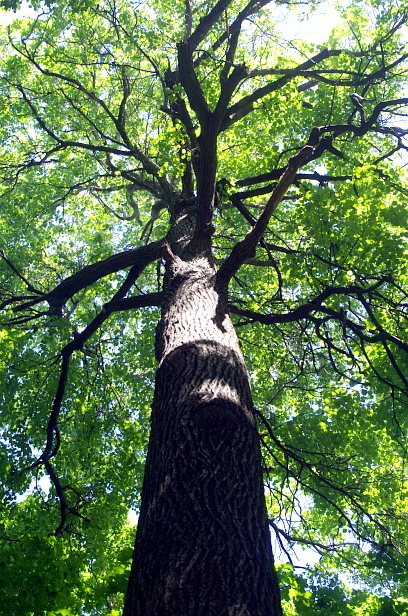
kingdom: Plantae
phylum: Tracheophyta
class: Magnoliopsida
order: Fagales
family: Fagaceae
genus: Quercus
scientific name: Quercus robur
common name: Pedunculate oak
